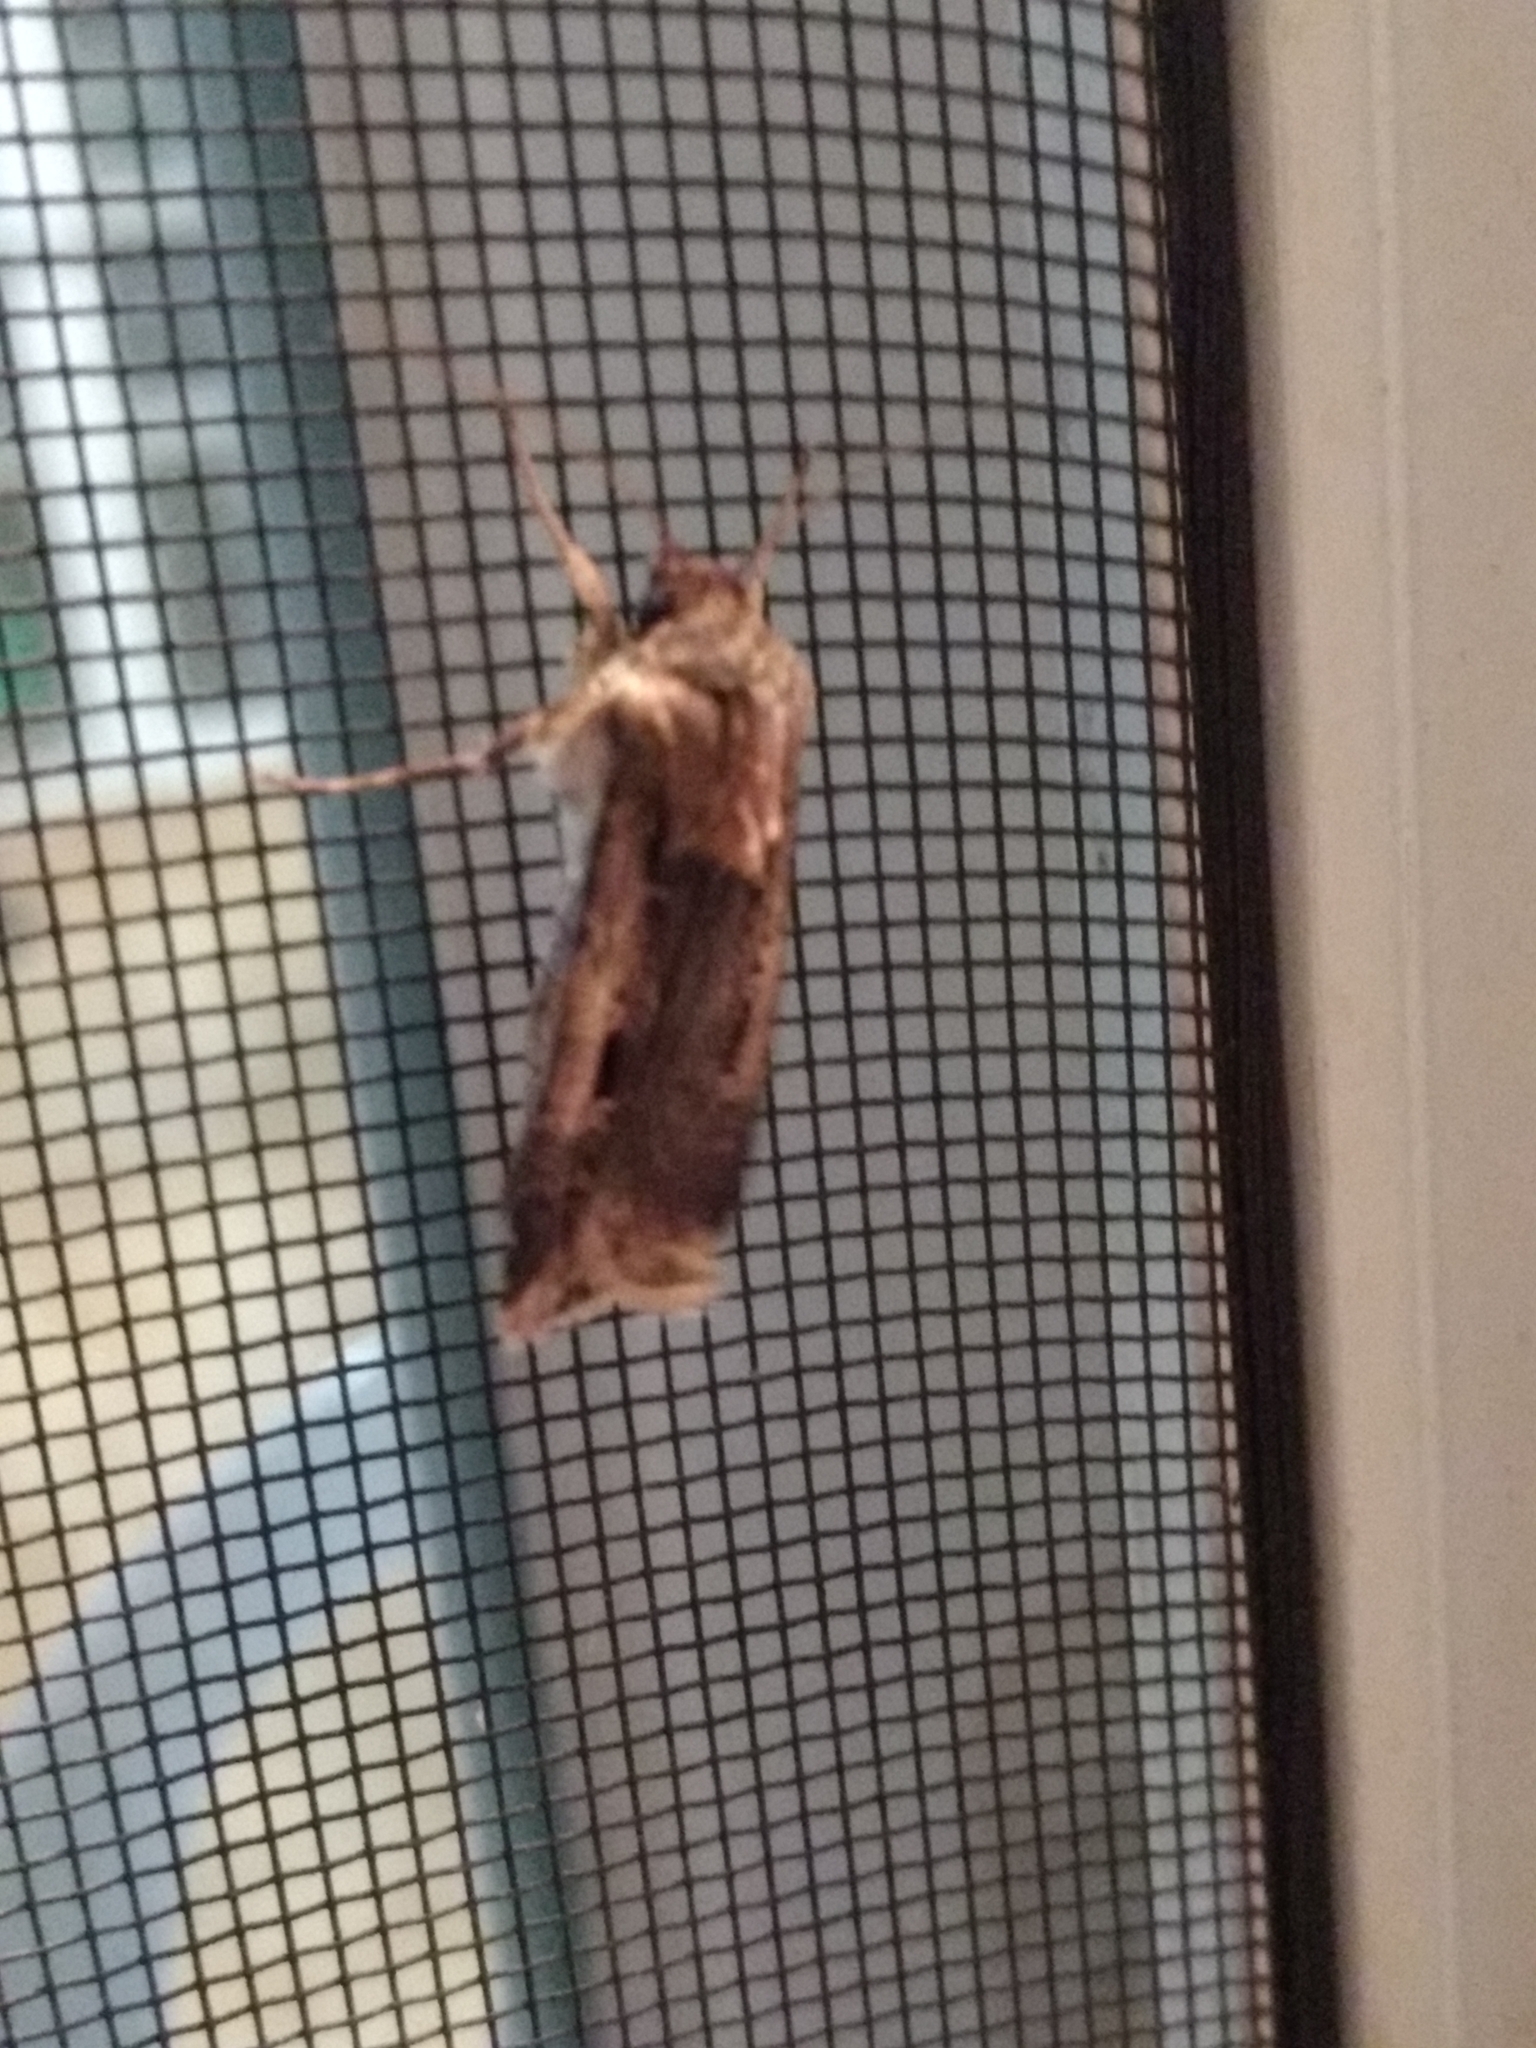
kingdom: Animalia
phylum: Arthropoda
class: Insecta
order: Lepidoptera
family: Noctuidae
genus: Feltia
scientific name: Feltia subterranea
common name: Granulate cutworm
